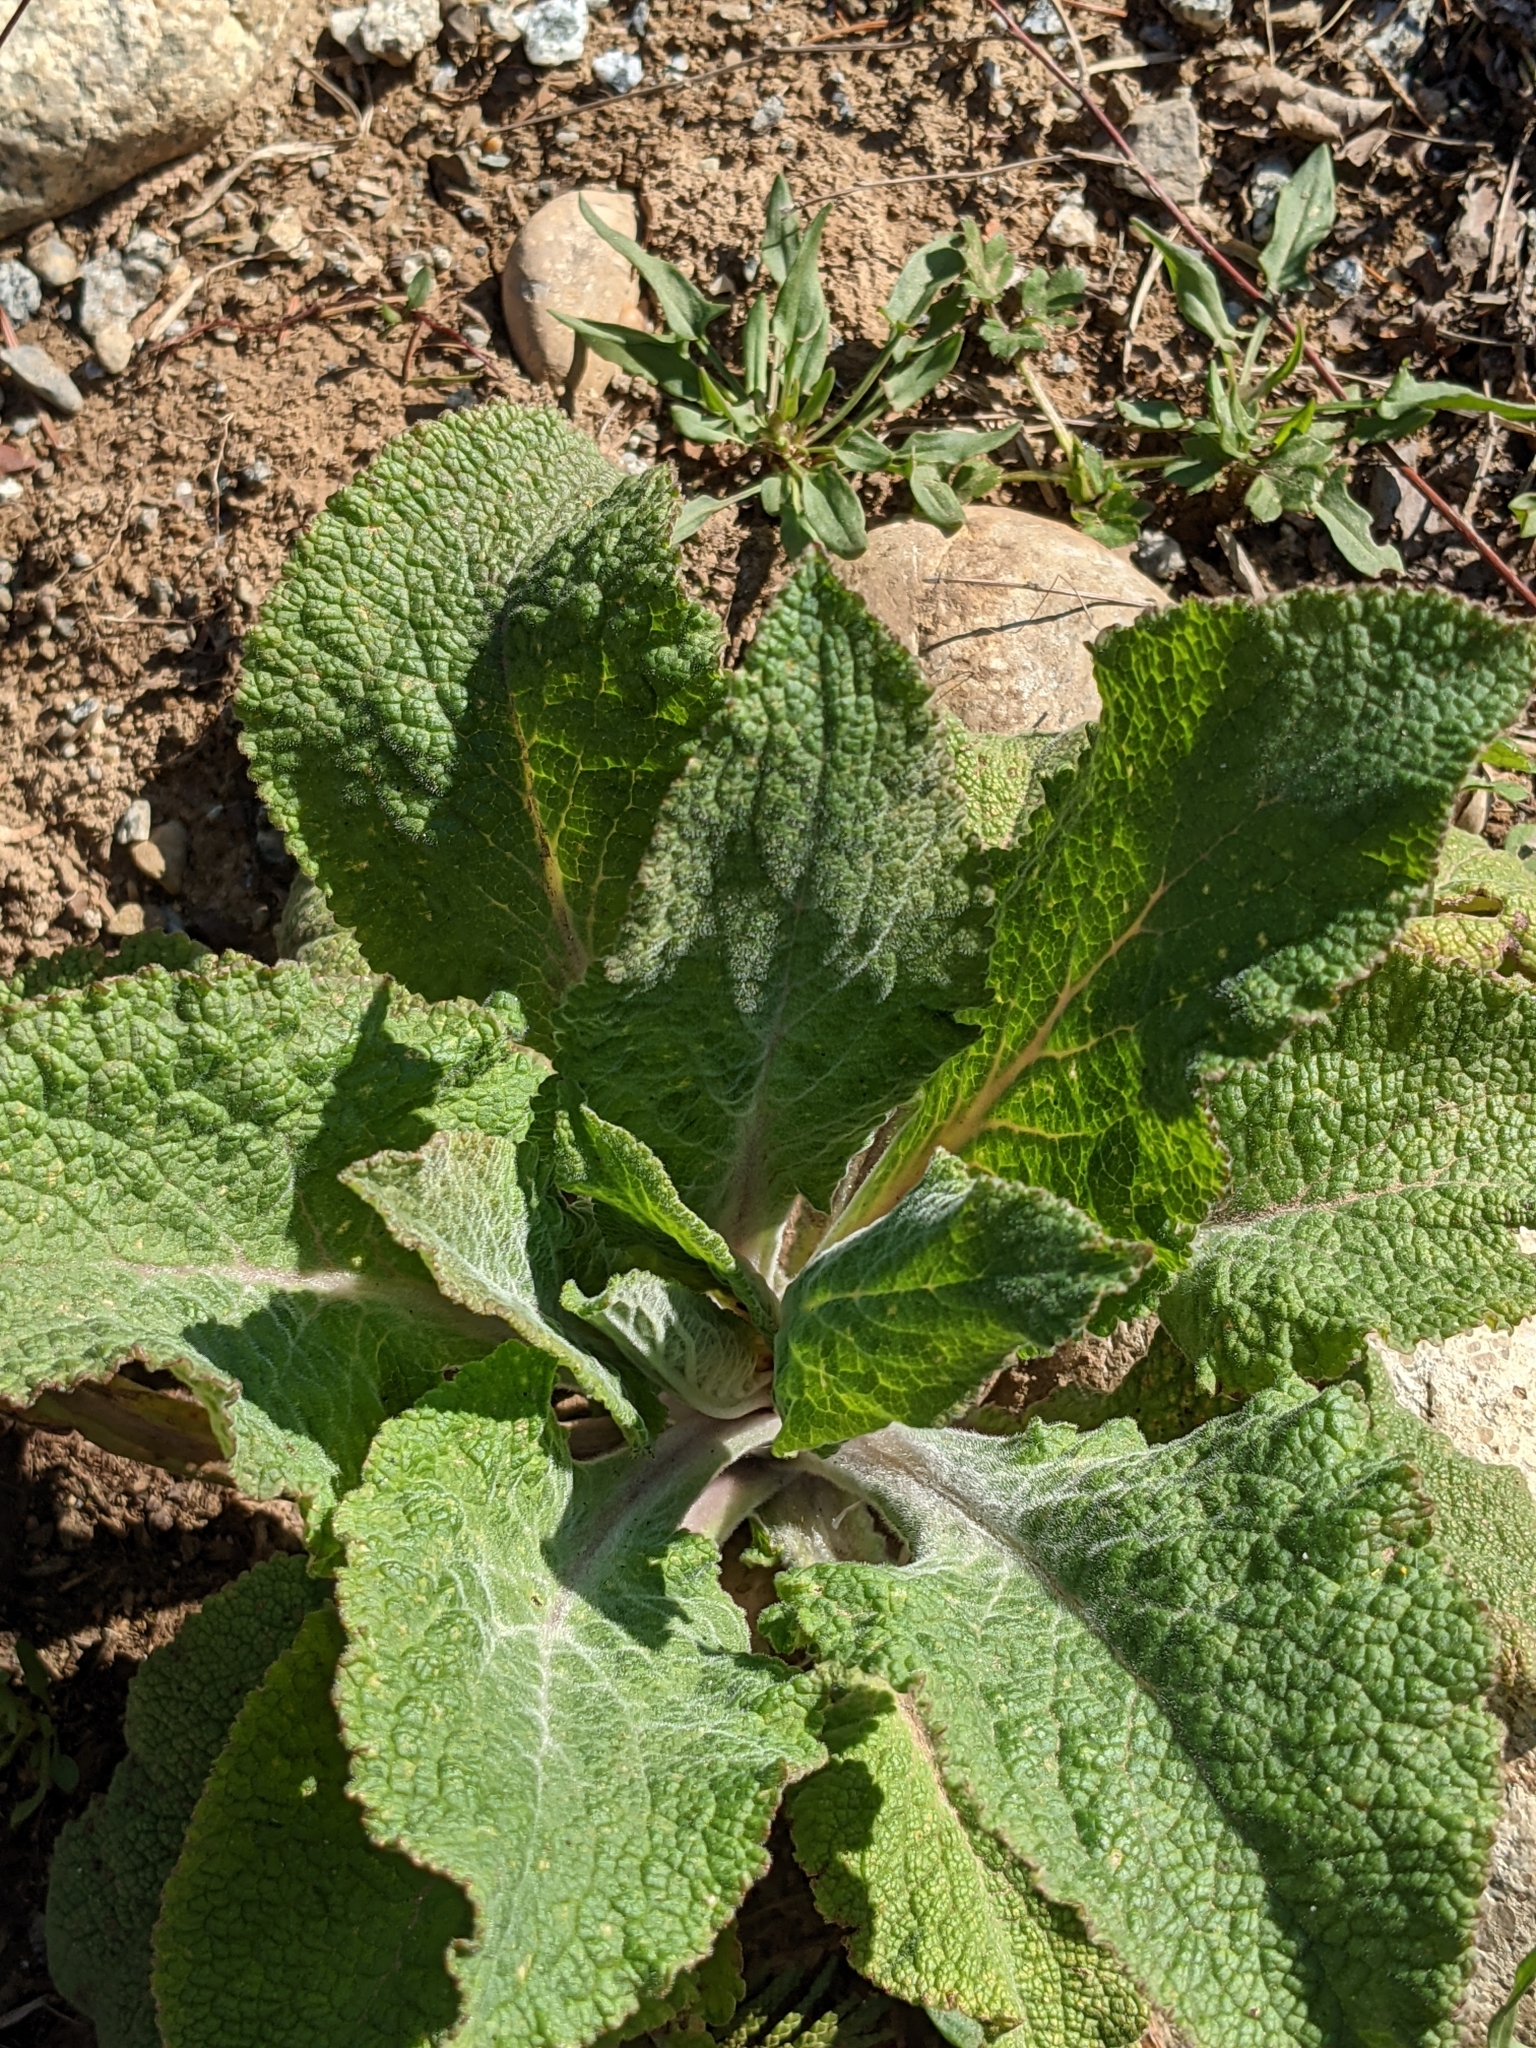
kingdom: Plantae
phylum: Tracheophyta
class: Magnoliopsida
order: Lamiales
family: Plantaginaceae
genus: Digitalis
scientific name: Digitalis purpurea
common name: Foxglove
